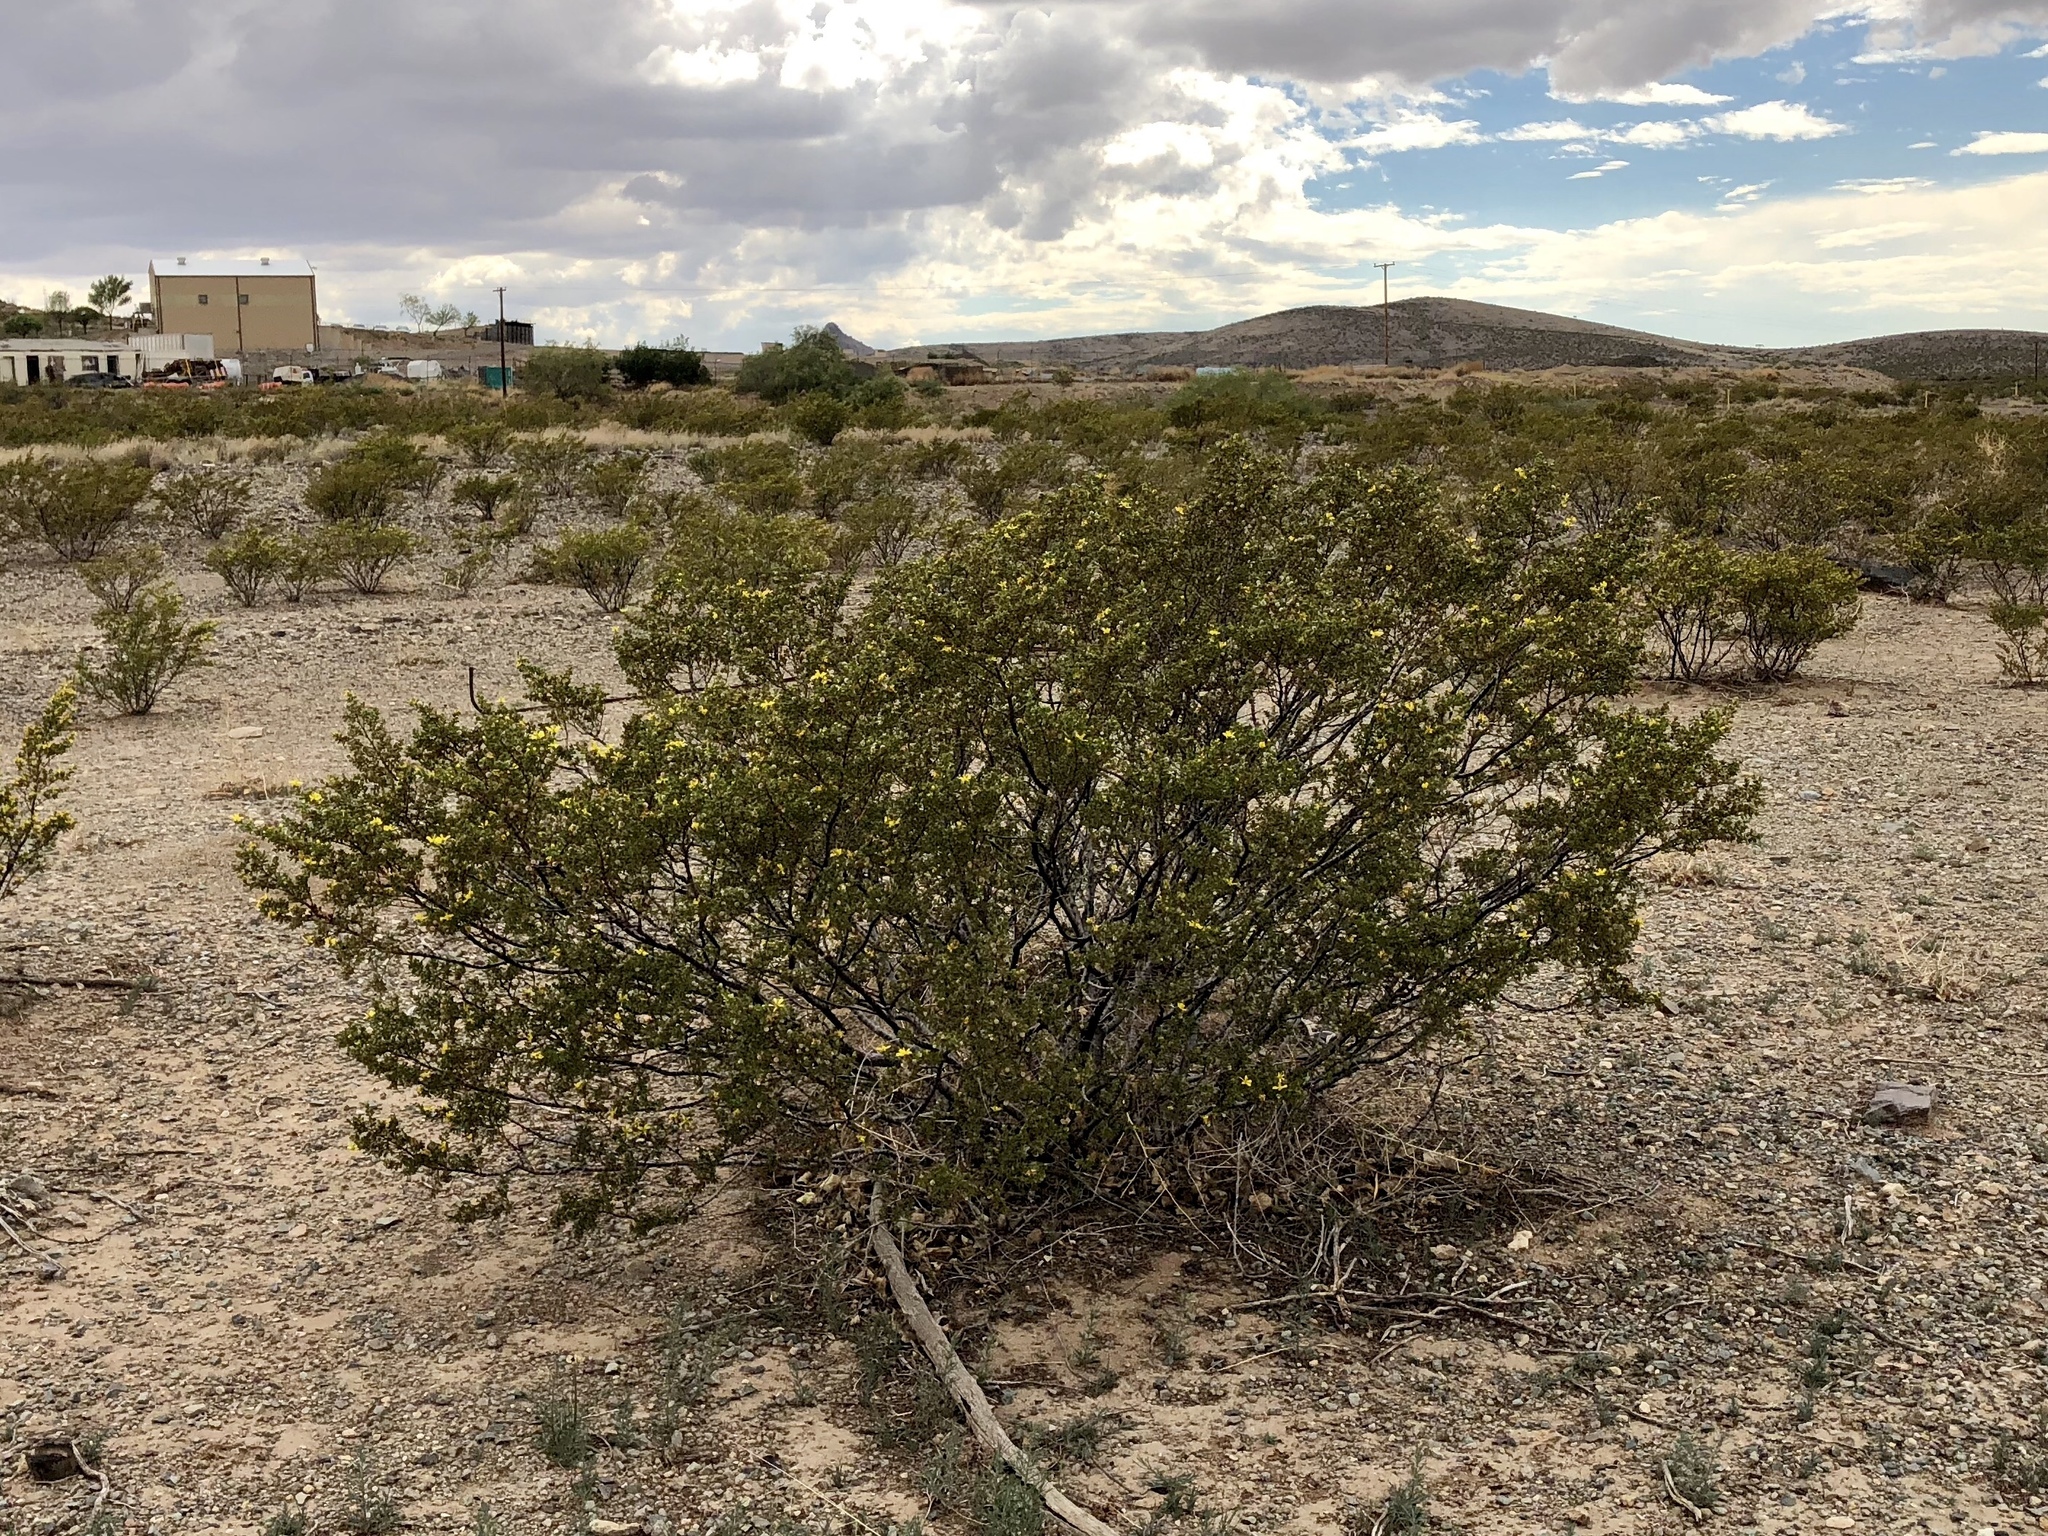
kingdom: Plantae
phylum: Tracheophyta
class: Magnoliopsida
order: Zygophyllales
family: Zygophyllaceae
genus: Larrea
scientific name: Larrea tridentata
